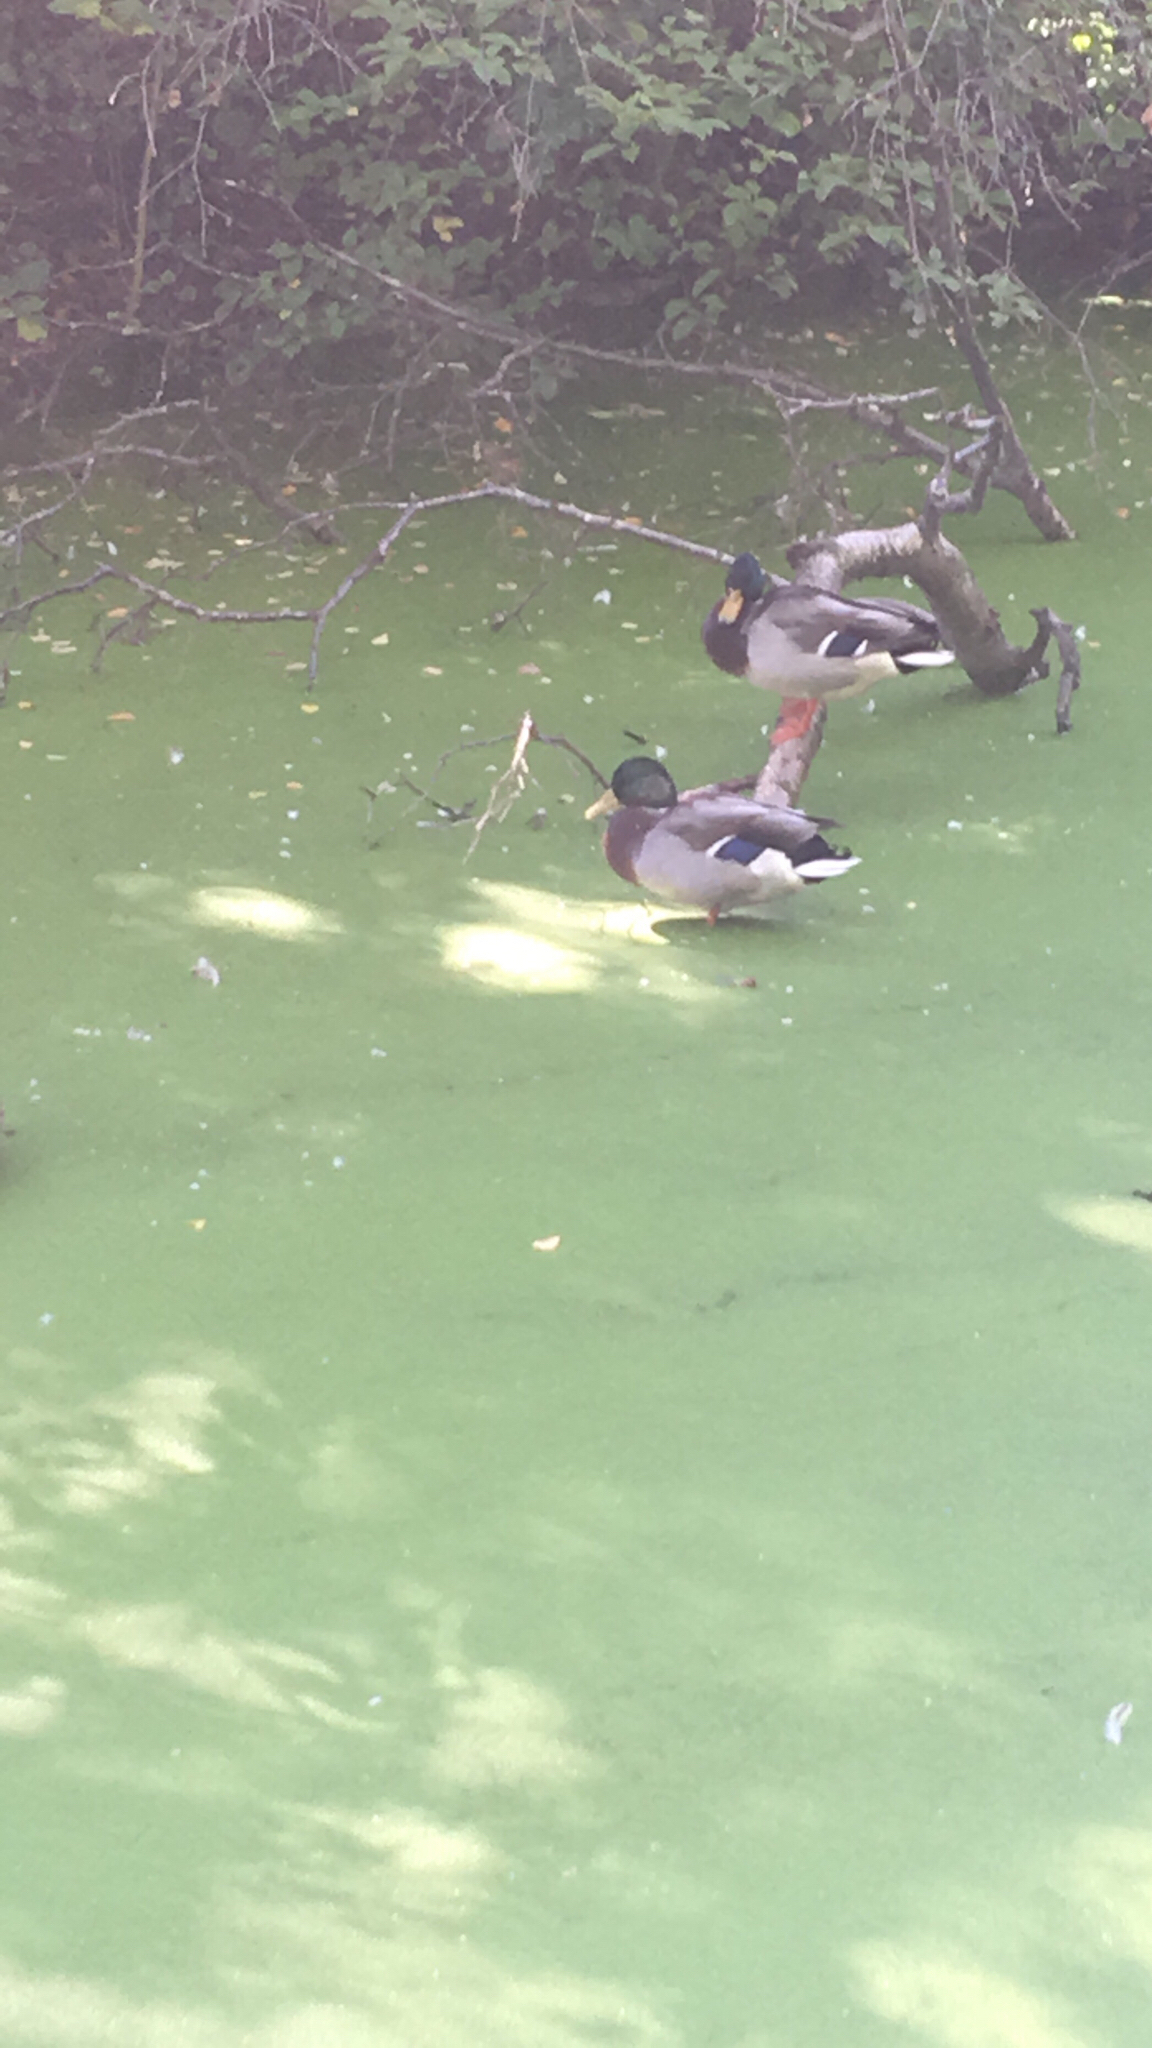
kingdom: Animalia
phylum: Chordata
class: Aves
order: Anseriformes
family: Anatidae
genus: Anas
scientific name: Anas platyrhynchos
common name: Mallard
